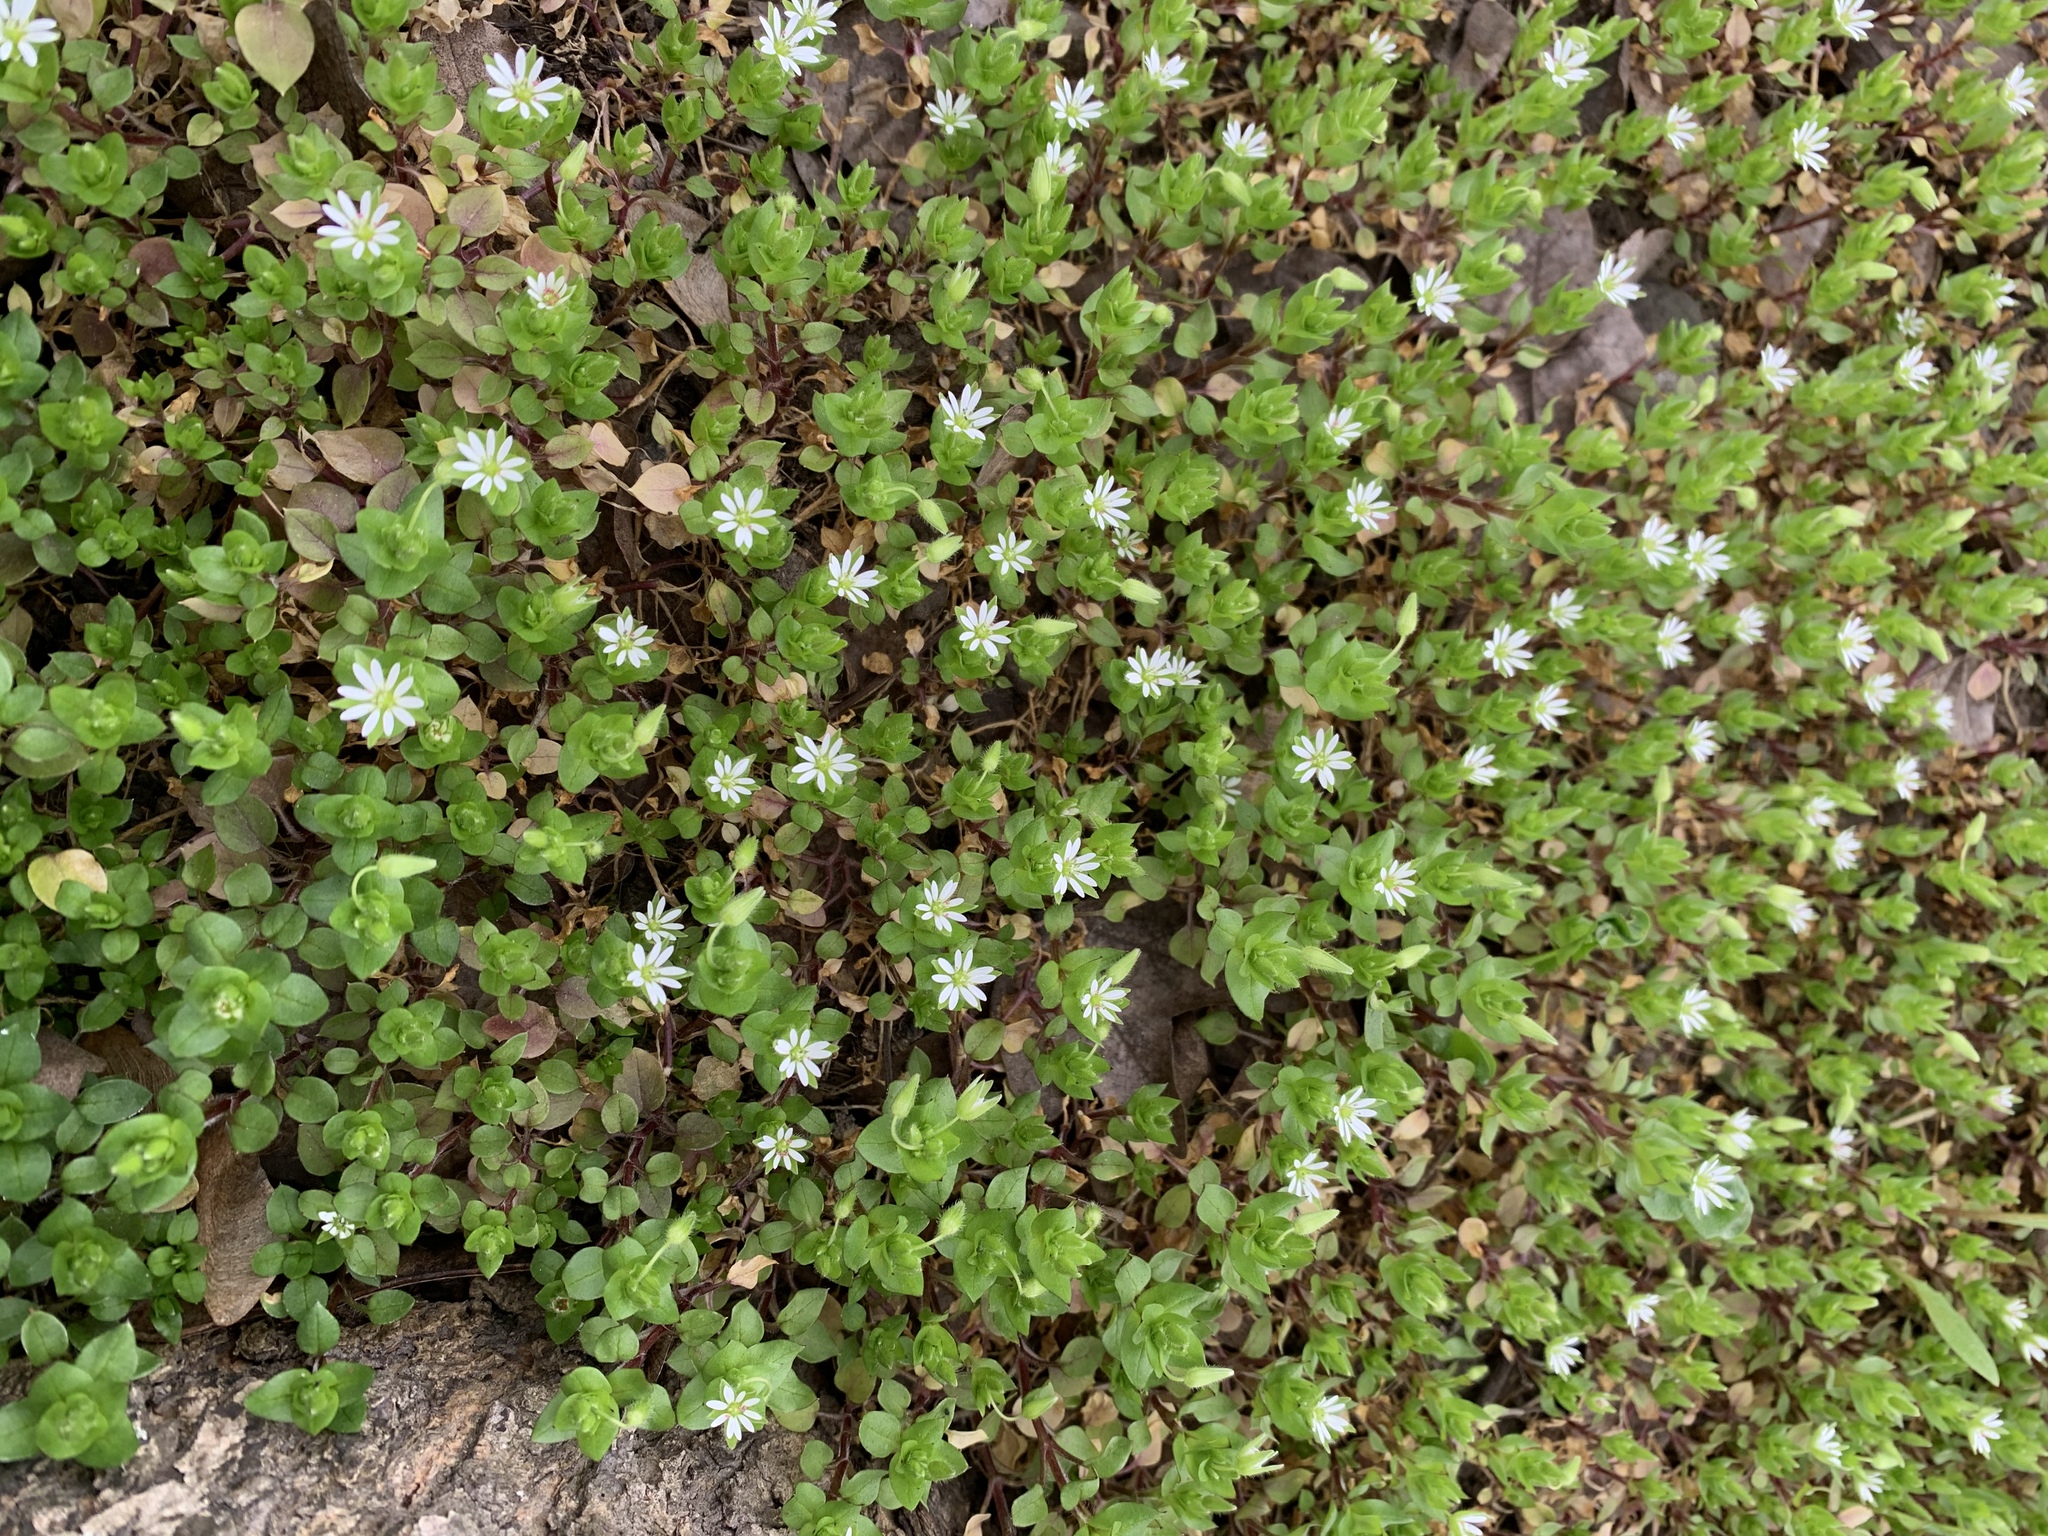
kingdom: Plantae
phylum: Tracheophyta
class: Magnoliopsida
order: Lamiales
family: Plantaginaceae
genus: Veronica
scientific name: Veronica sublobata
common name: False ivy-leaved speedwell
